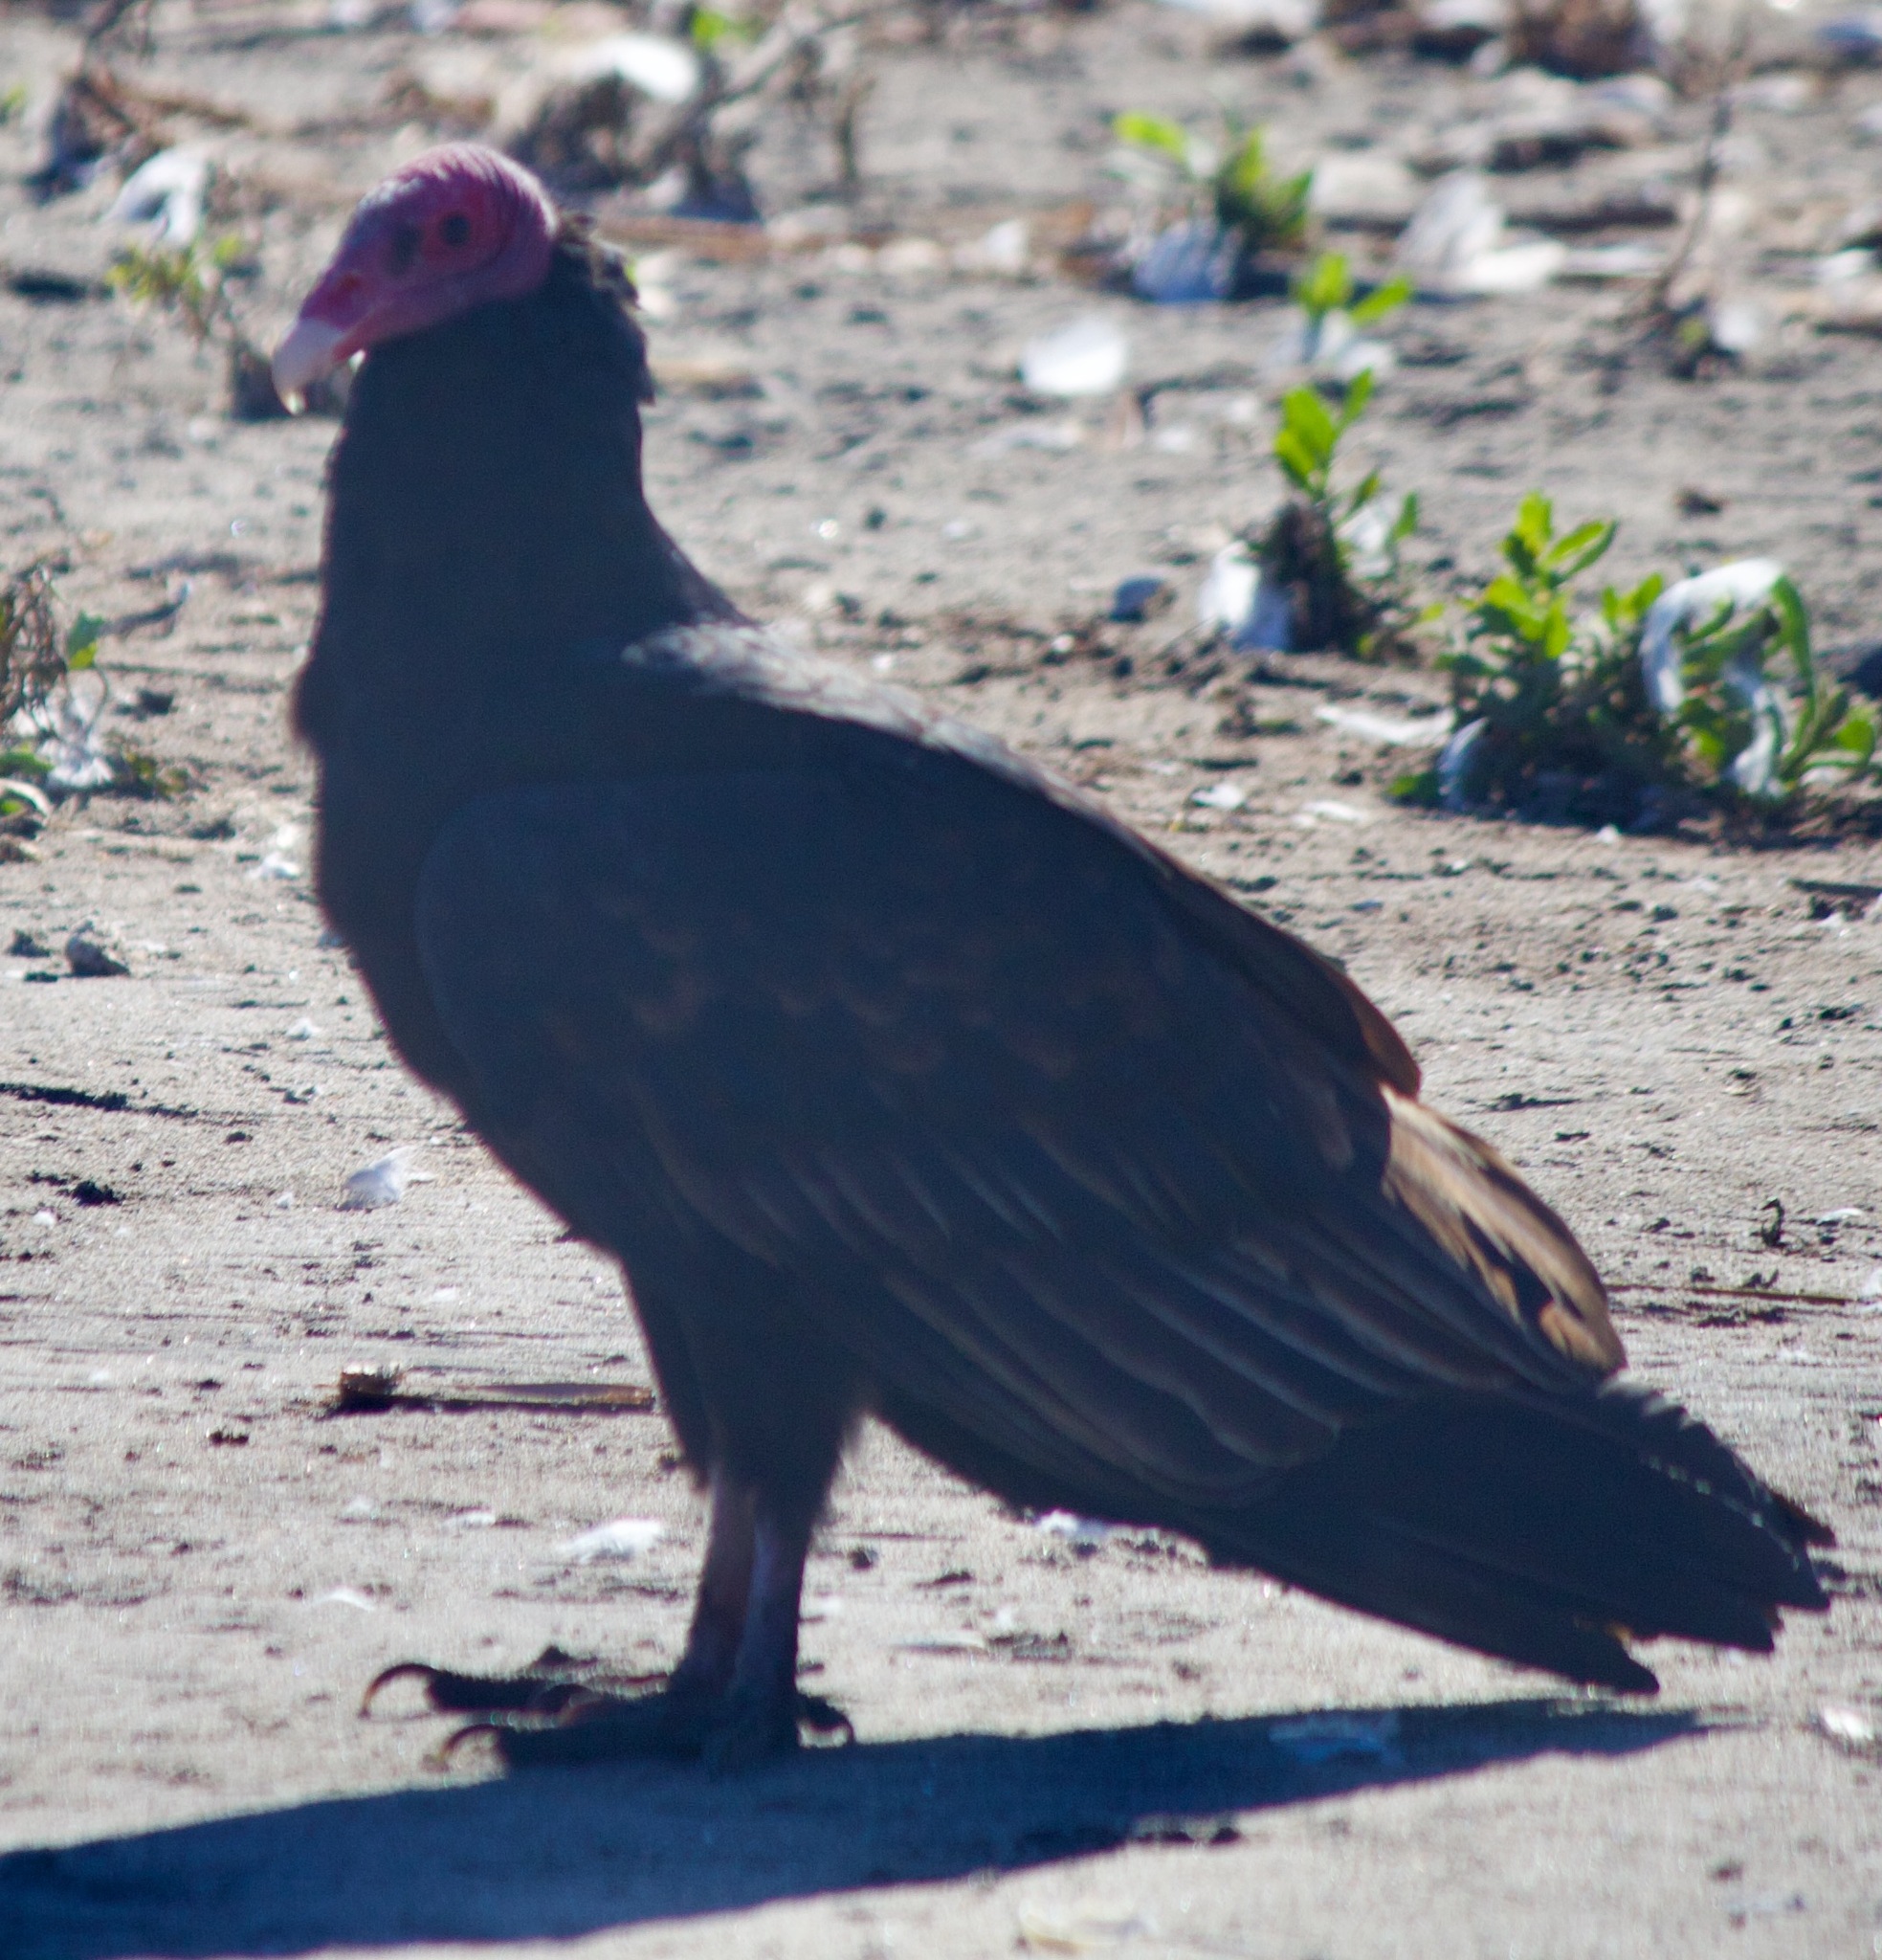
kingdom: Animalia
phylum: Chordata
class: Aves
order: Accipitriformes
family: Cathartidae
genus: Cathartes
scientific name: Cathartes aura
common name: Turkey vulture
